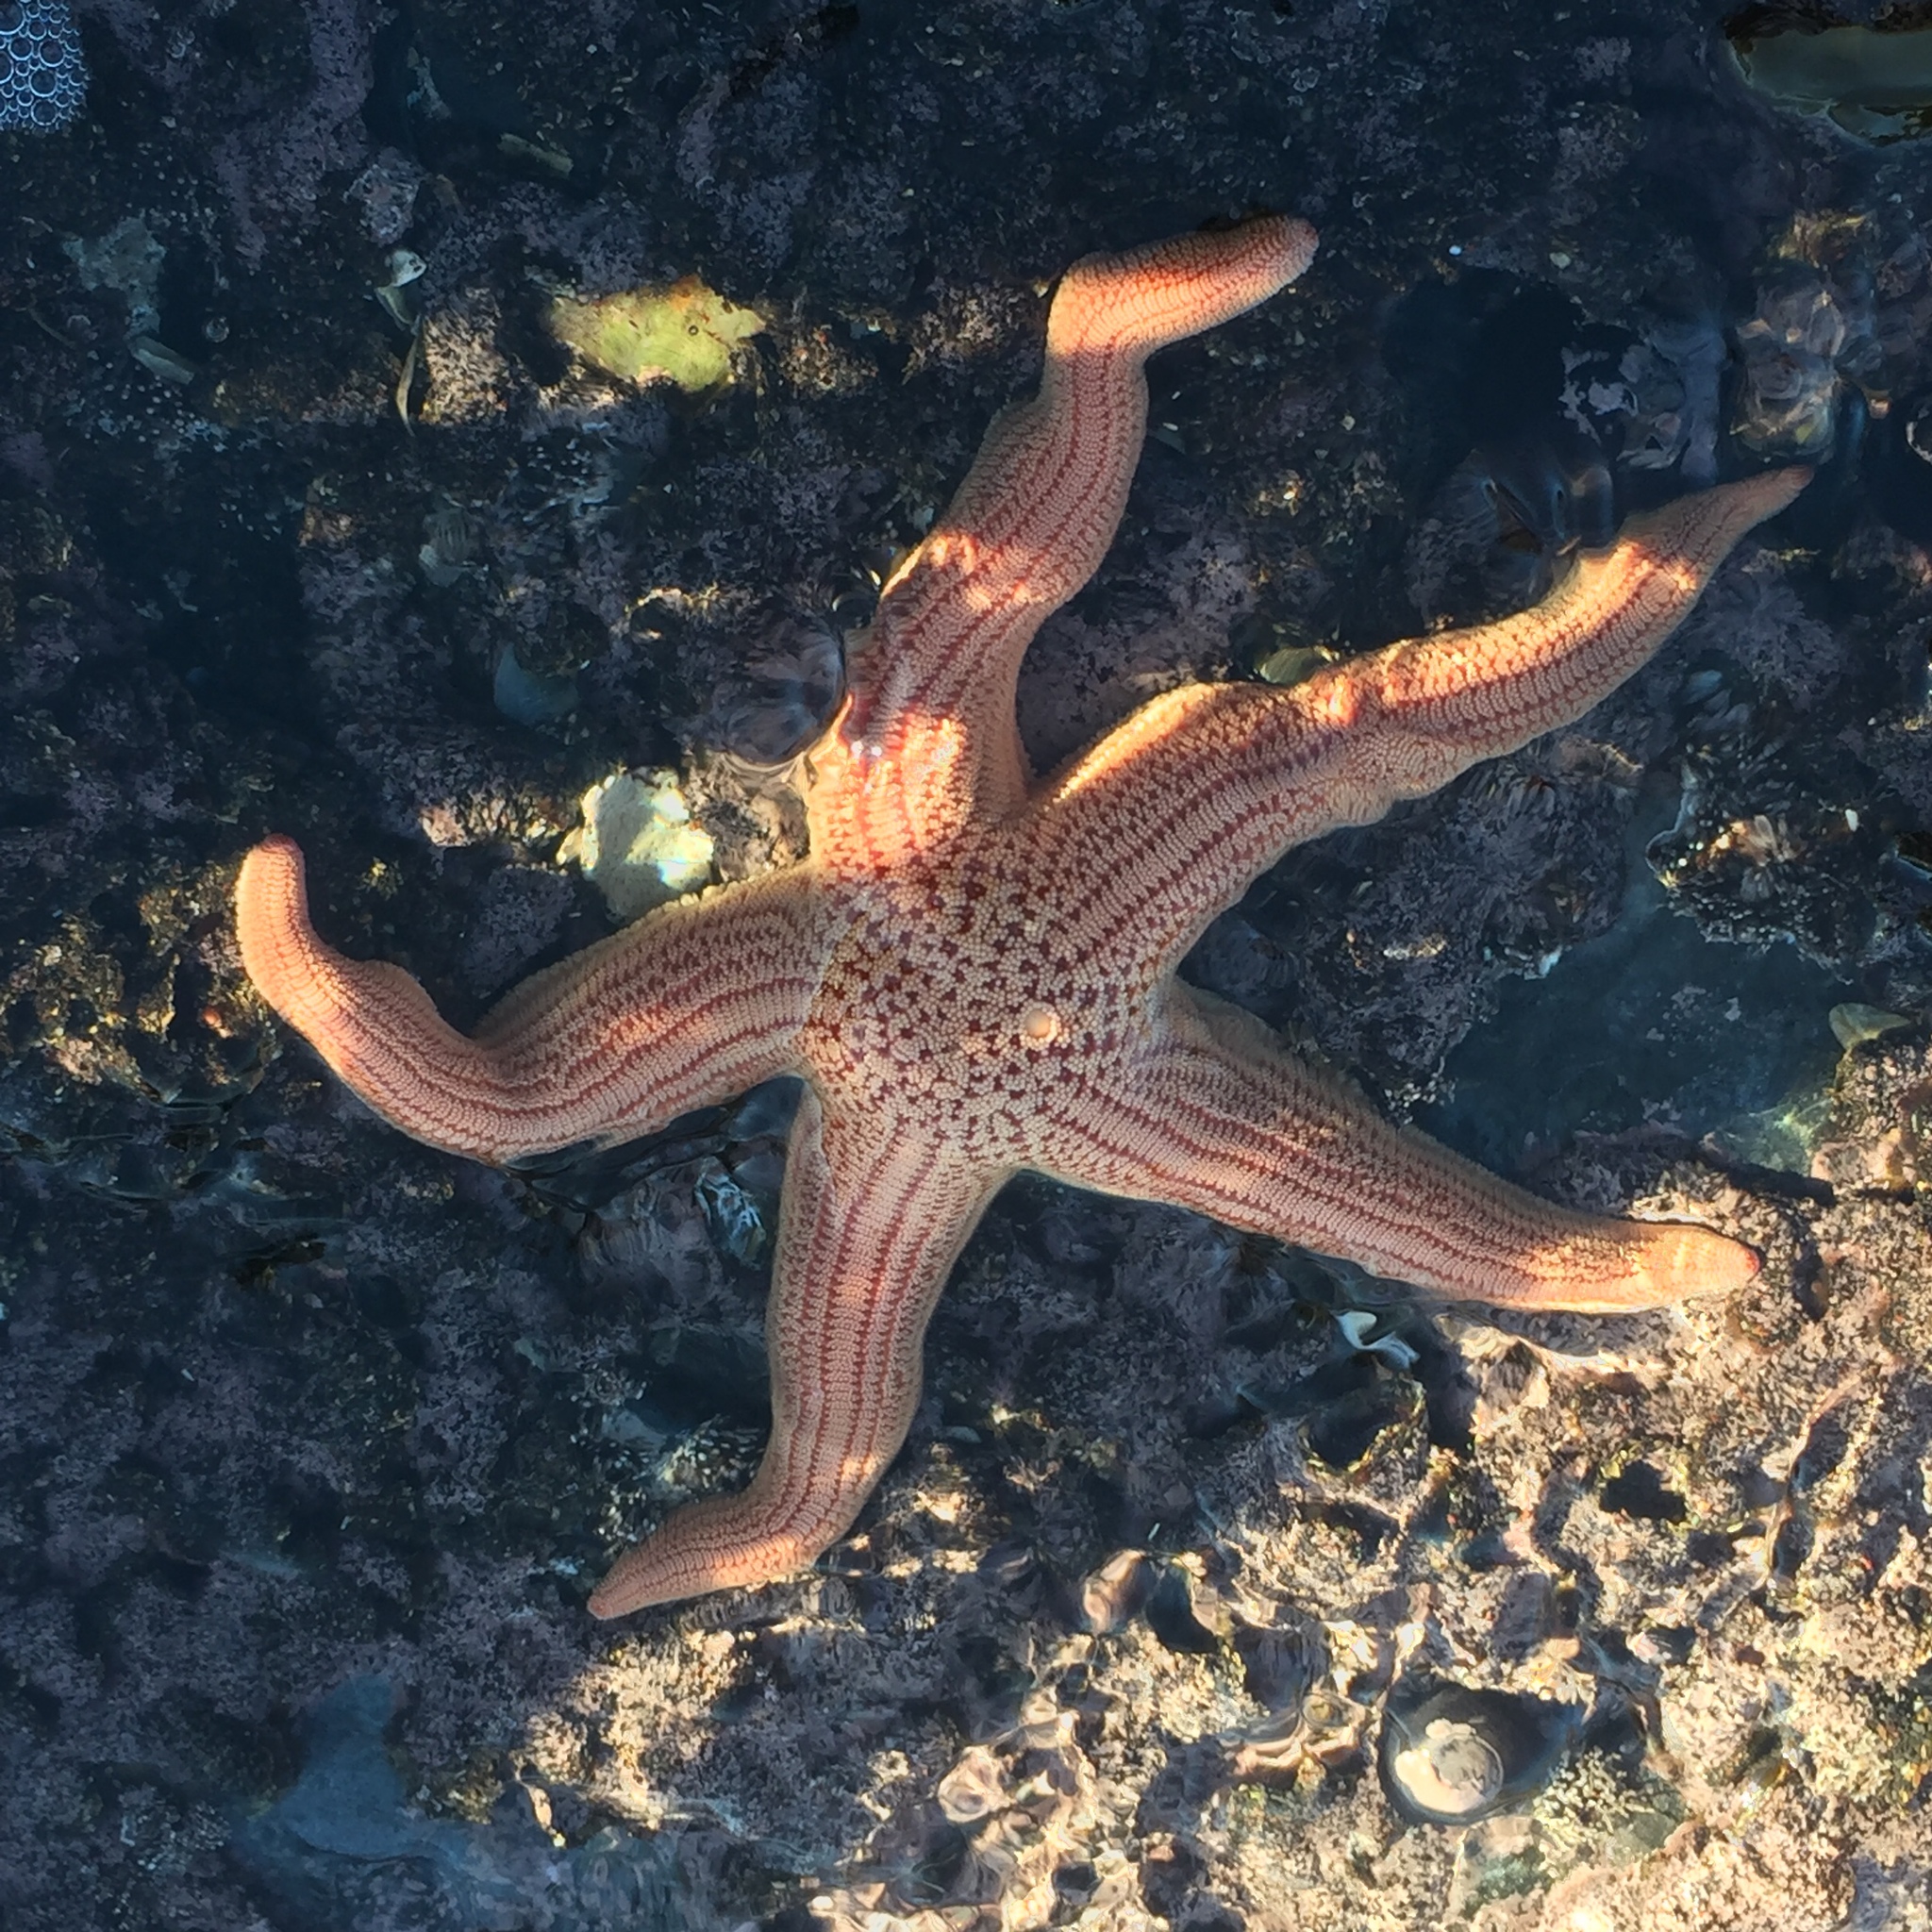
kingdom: Animalia
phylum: Echinodermata
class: Asteroidea
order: Forcipulatida
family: Stichasteridae
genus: Stichaster
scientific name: Stichaster striatus
